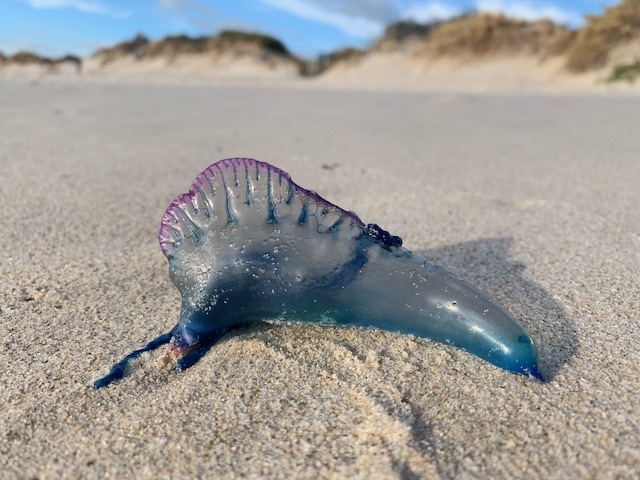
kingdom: Animalia
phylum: Cnidaria
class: Hydrozoa
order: Siphonophorae
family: Physaliidae
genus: Physalia
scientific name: Physalia physalis
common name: Portuguese man-of-war
